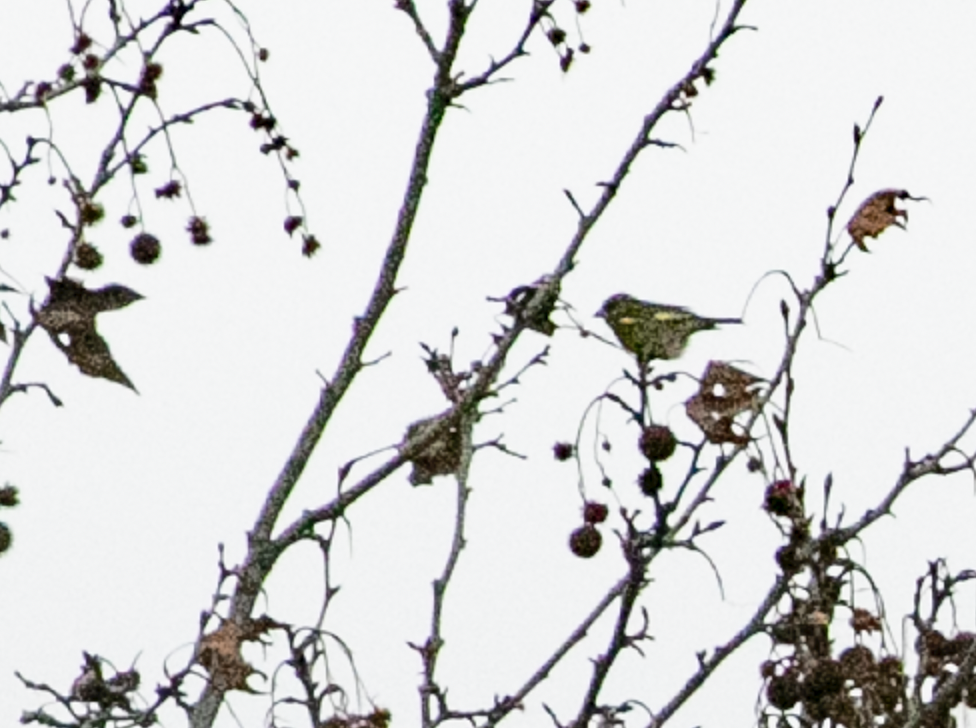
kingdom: Plantae
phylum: Tracheophyta
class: Liliopsida
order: Poales
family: Poaceae
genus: Chloris
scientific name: Chloris chloris
